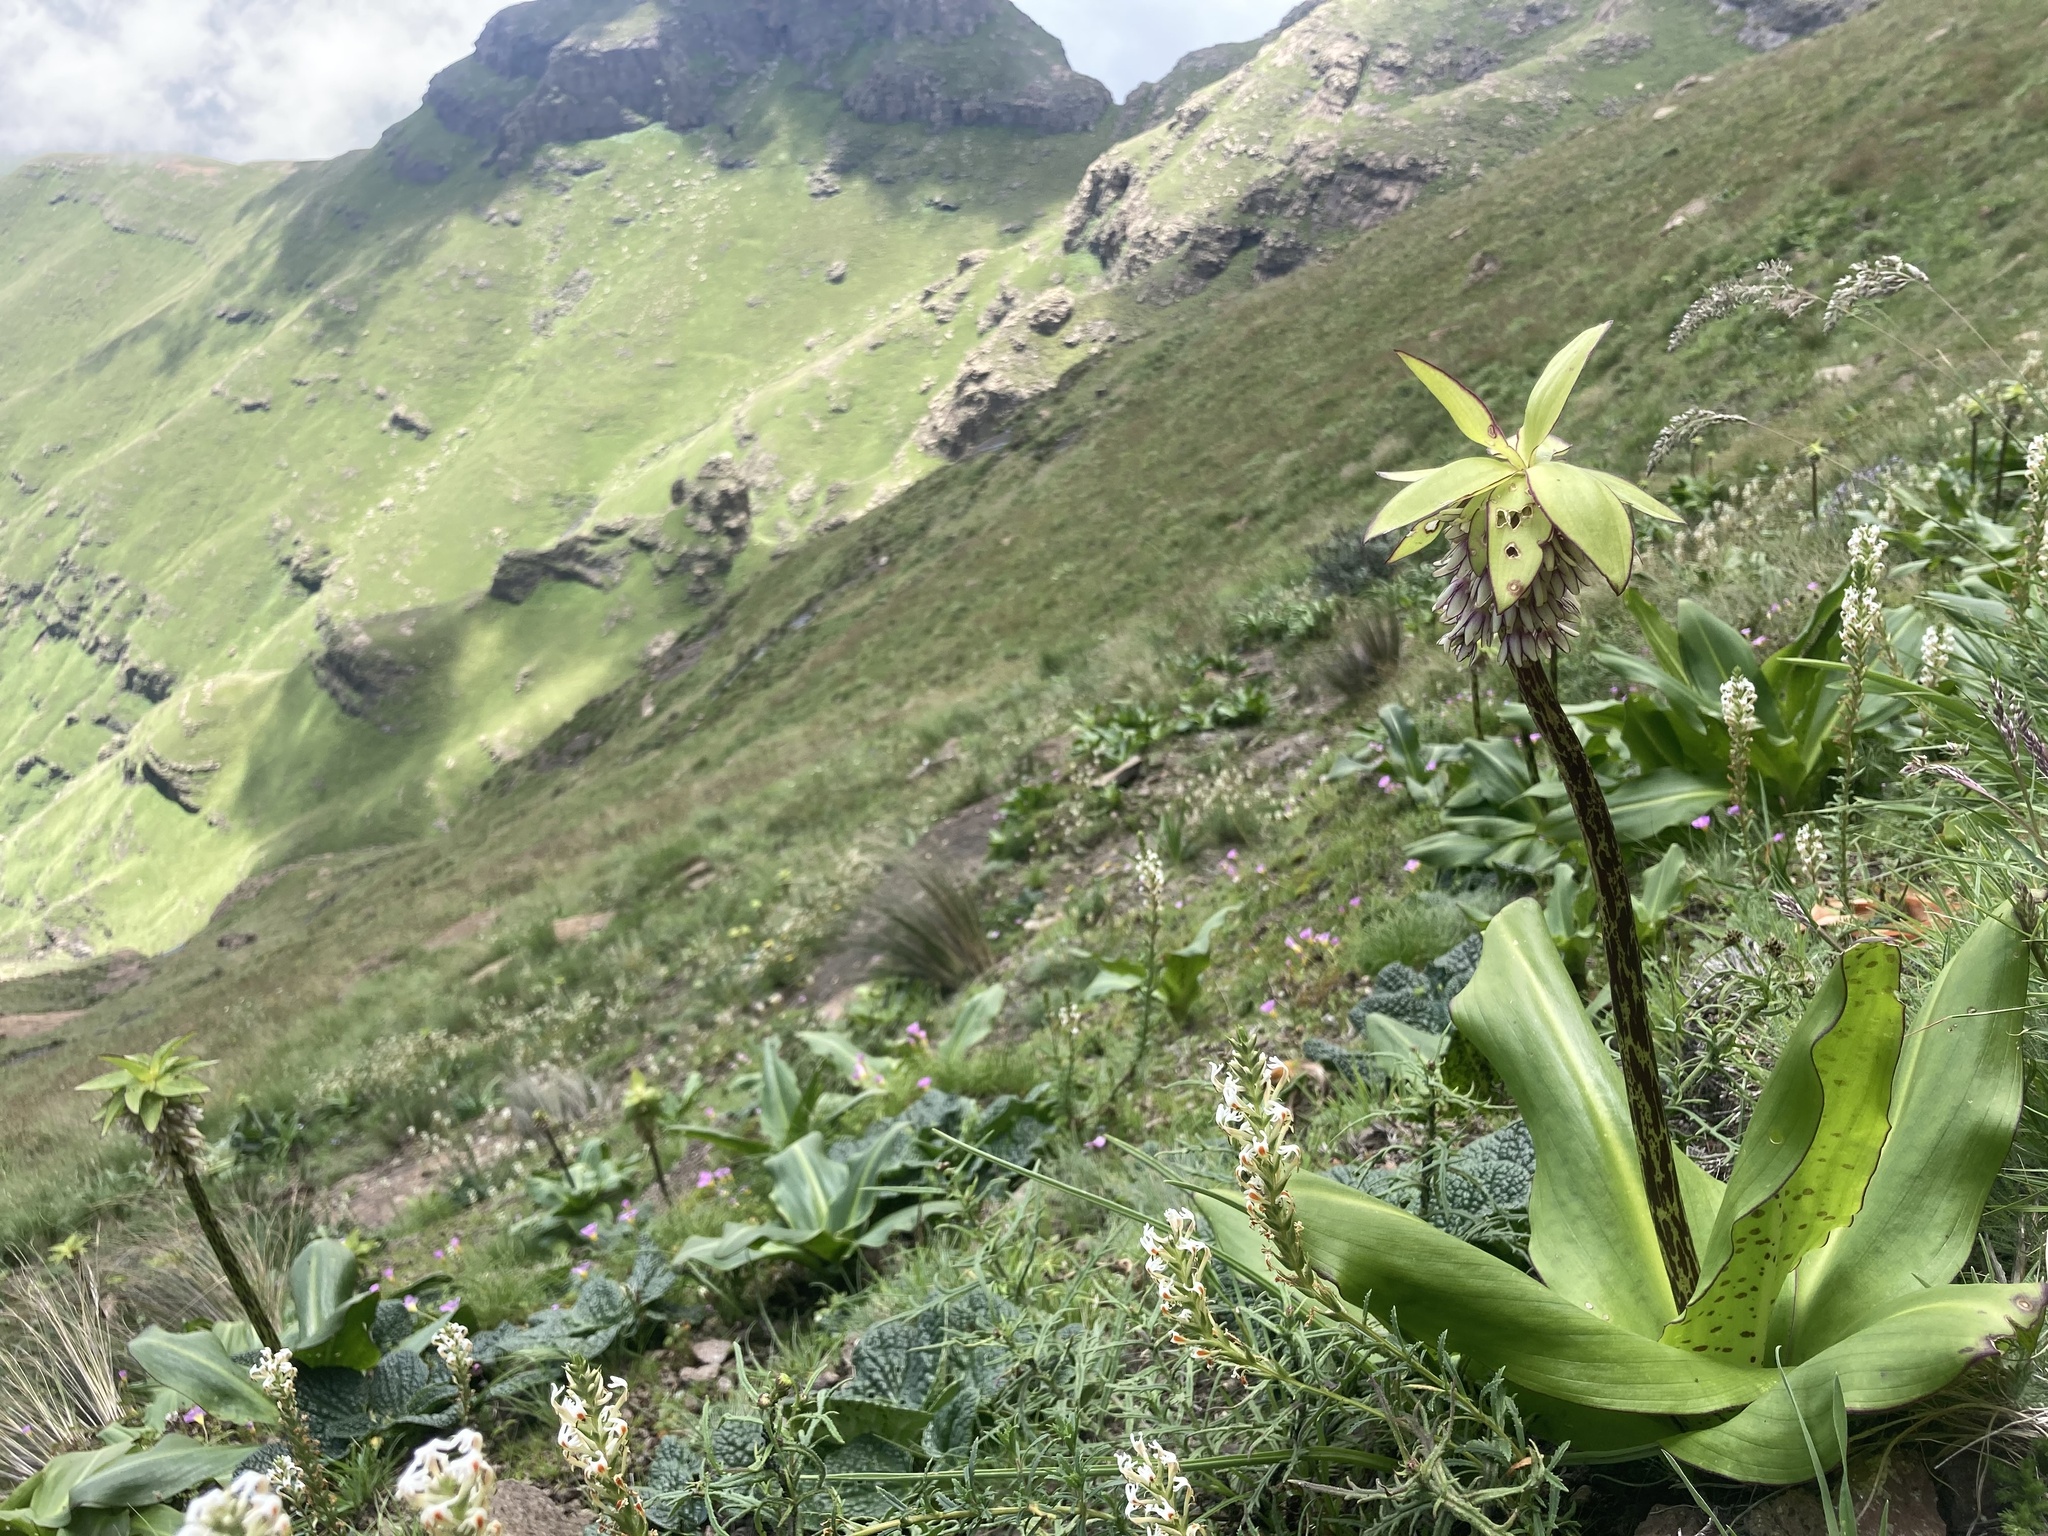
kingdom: Plantae
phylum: Tracheophyta
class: Liliopsida
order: Asparagales
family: Asparagaceae
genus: Eucomis
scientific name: Eucomis bicolor
